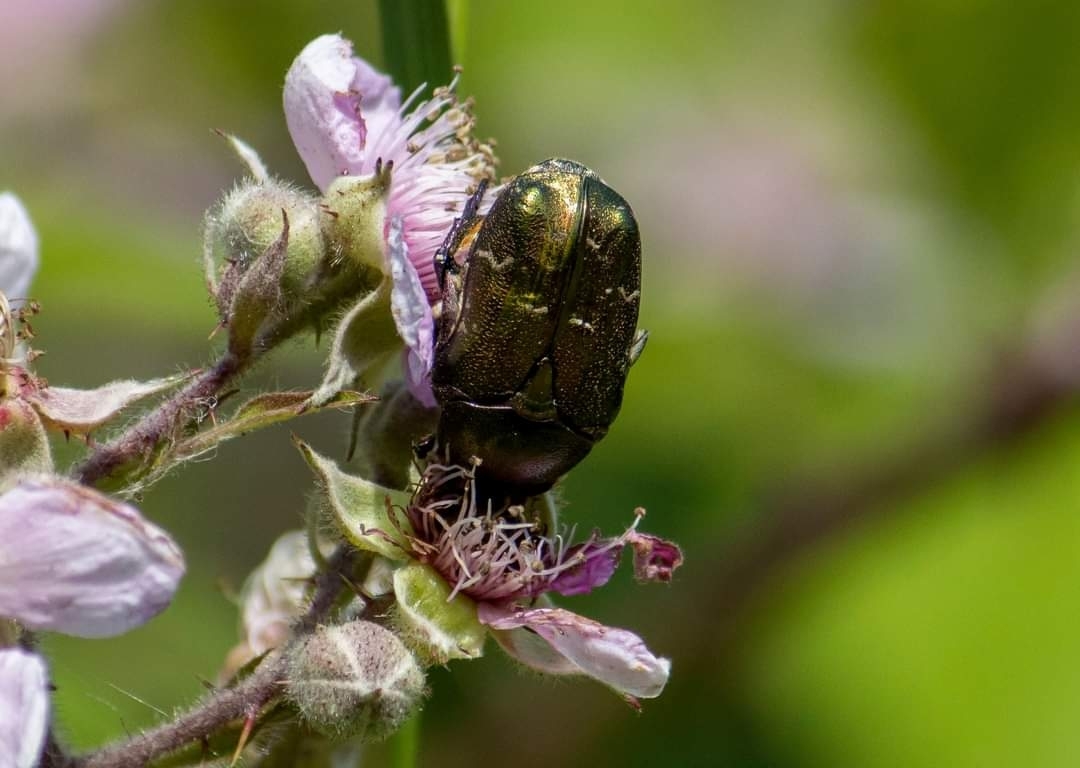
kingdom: Animalia
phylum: Arthropoda
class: Insecta
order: Coleoptera
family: Scarabaeidae
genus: Cetonia
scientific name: Cetonia aurata
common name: Rose chafer
